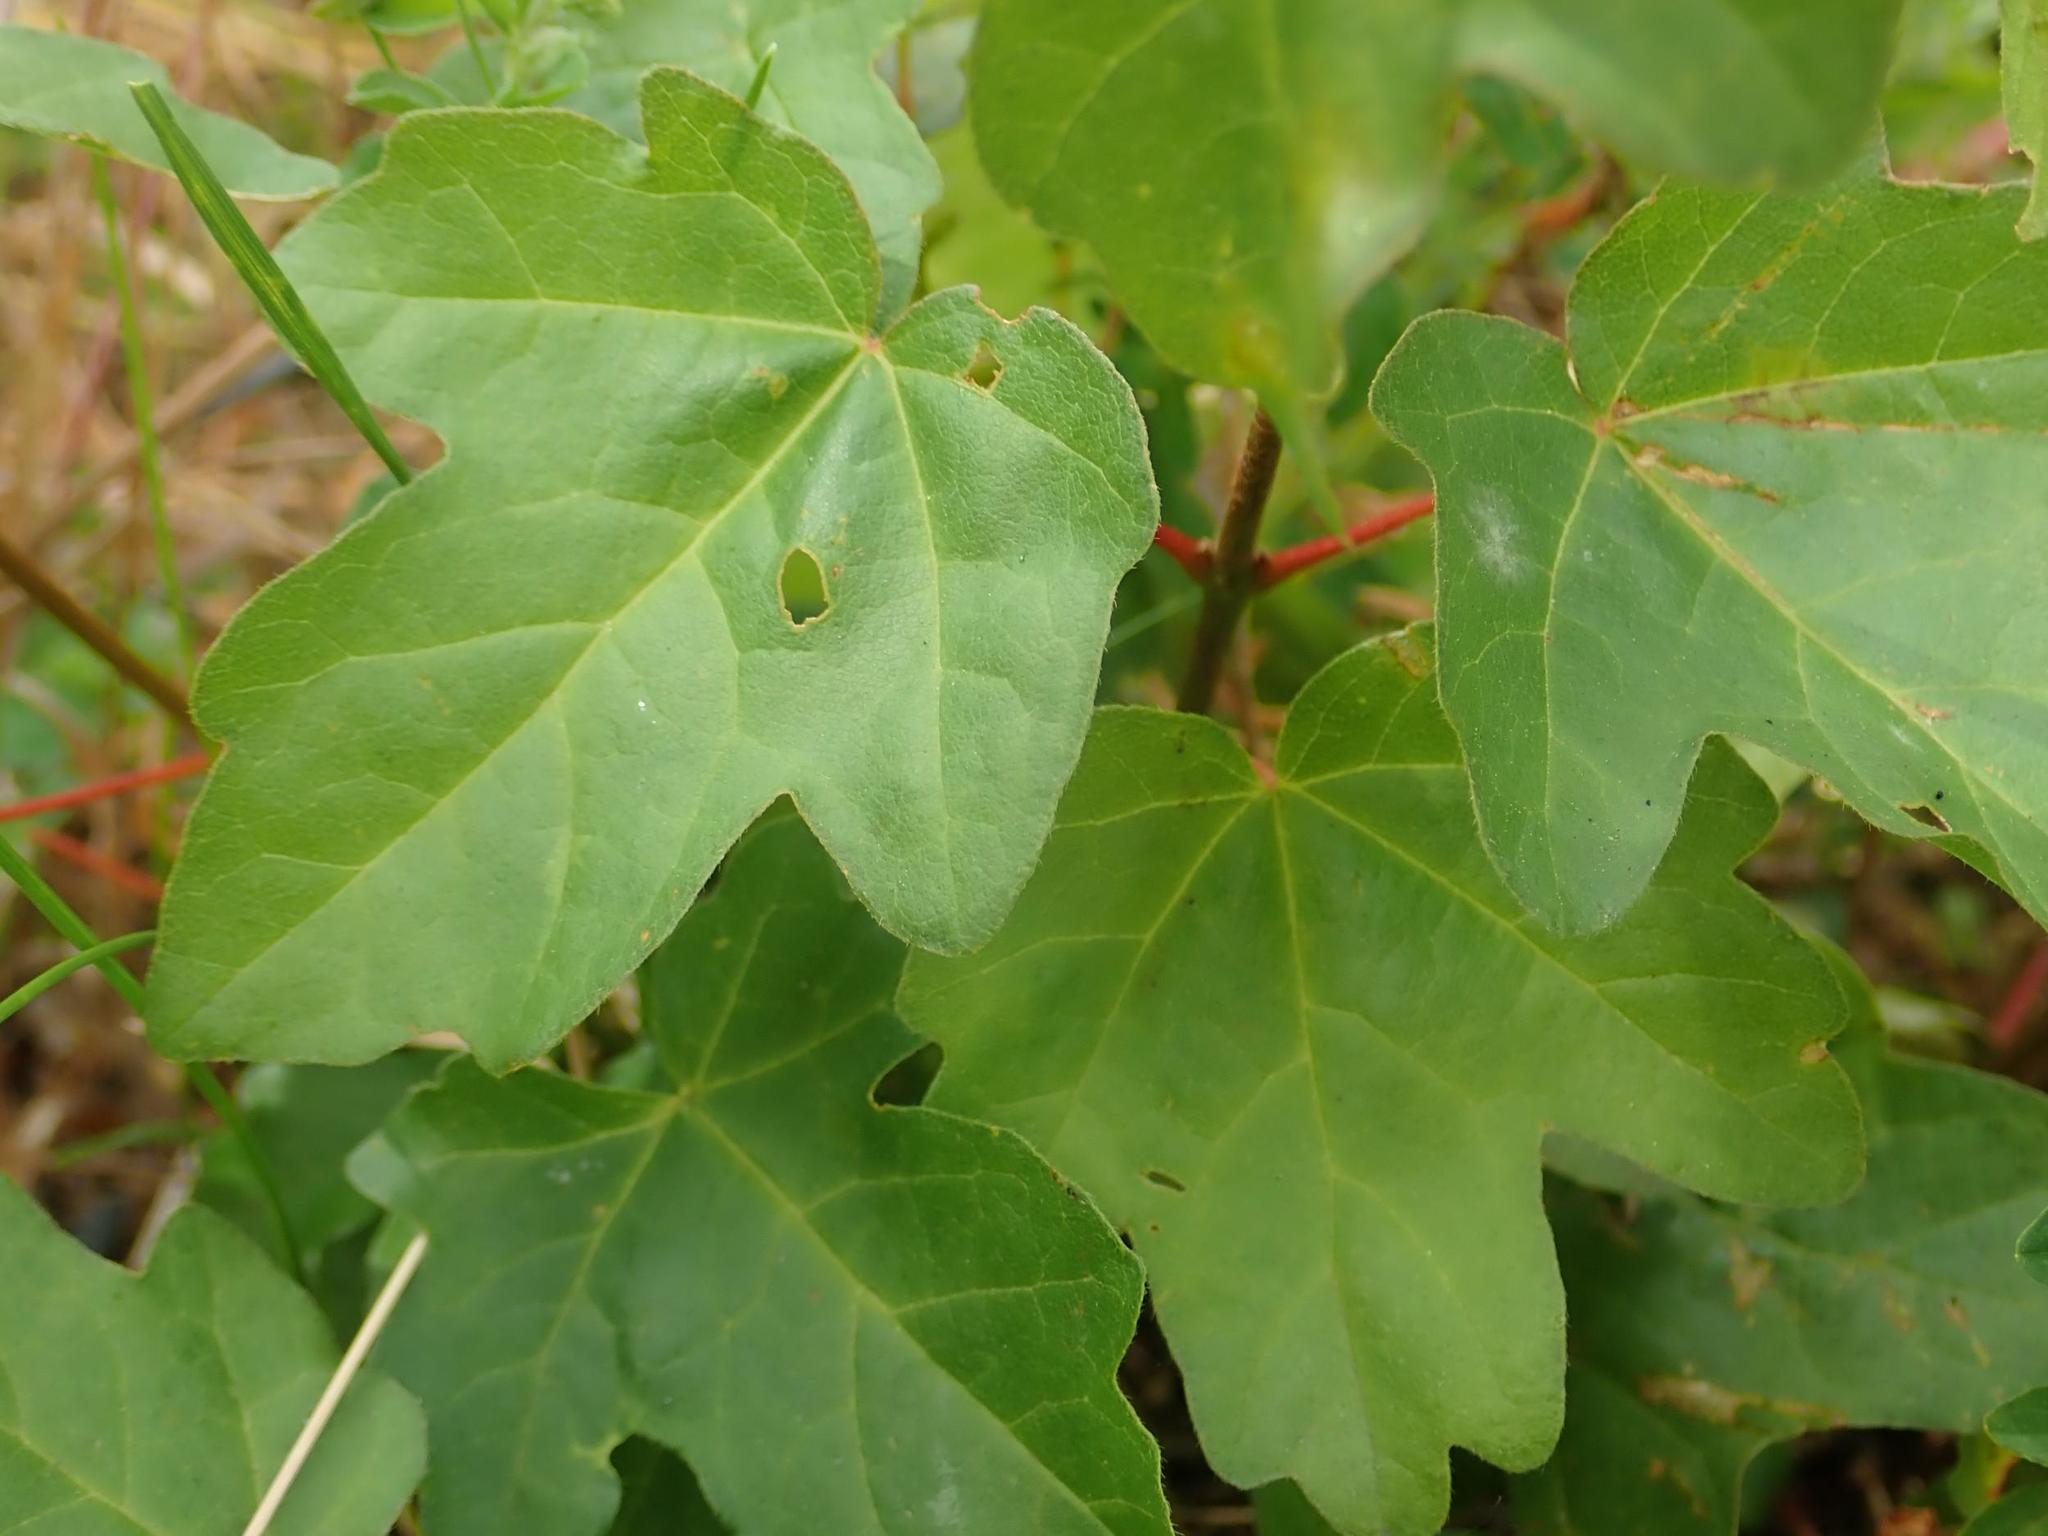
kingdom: Plantae
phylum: Tracheophyta
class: Magnoliopsida
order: Sapindales
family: Sapindaceae
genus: Acer
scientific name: Acer campestre
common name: Field maple
